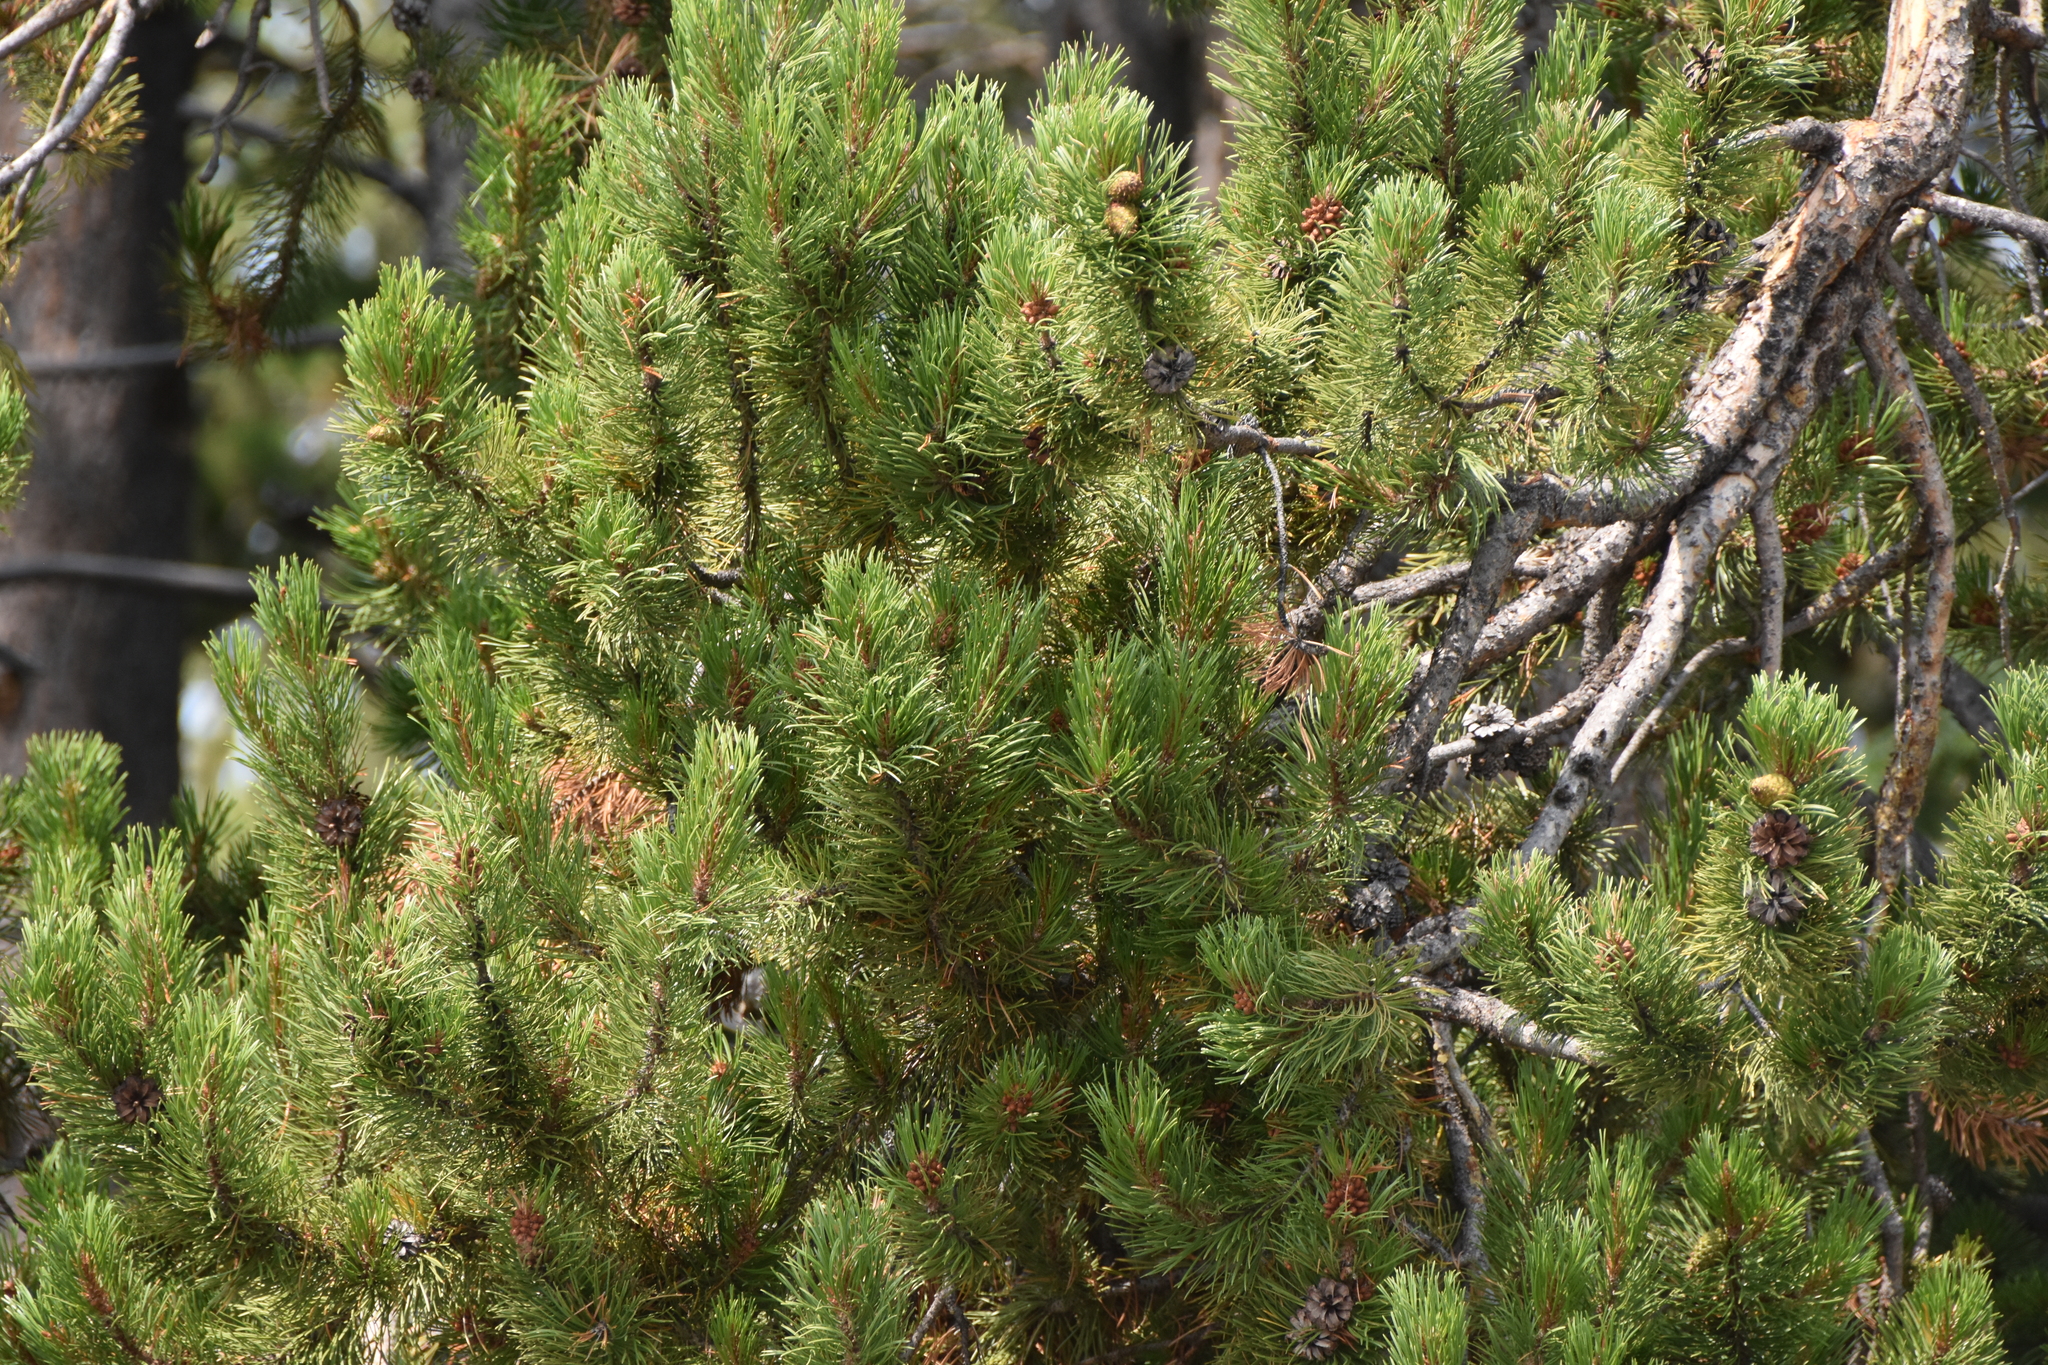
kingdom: Plantae
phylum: Tracheophyta
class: Pinopsida
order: Pinales
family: Pinaceae
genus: Pinus
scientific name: Pinus contorta
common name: Lodgepole pine
